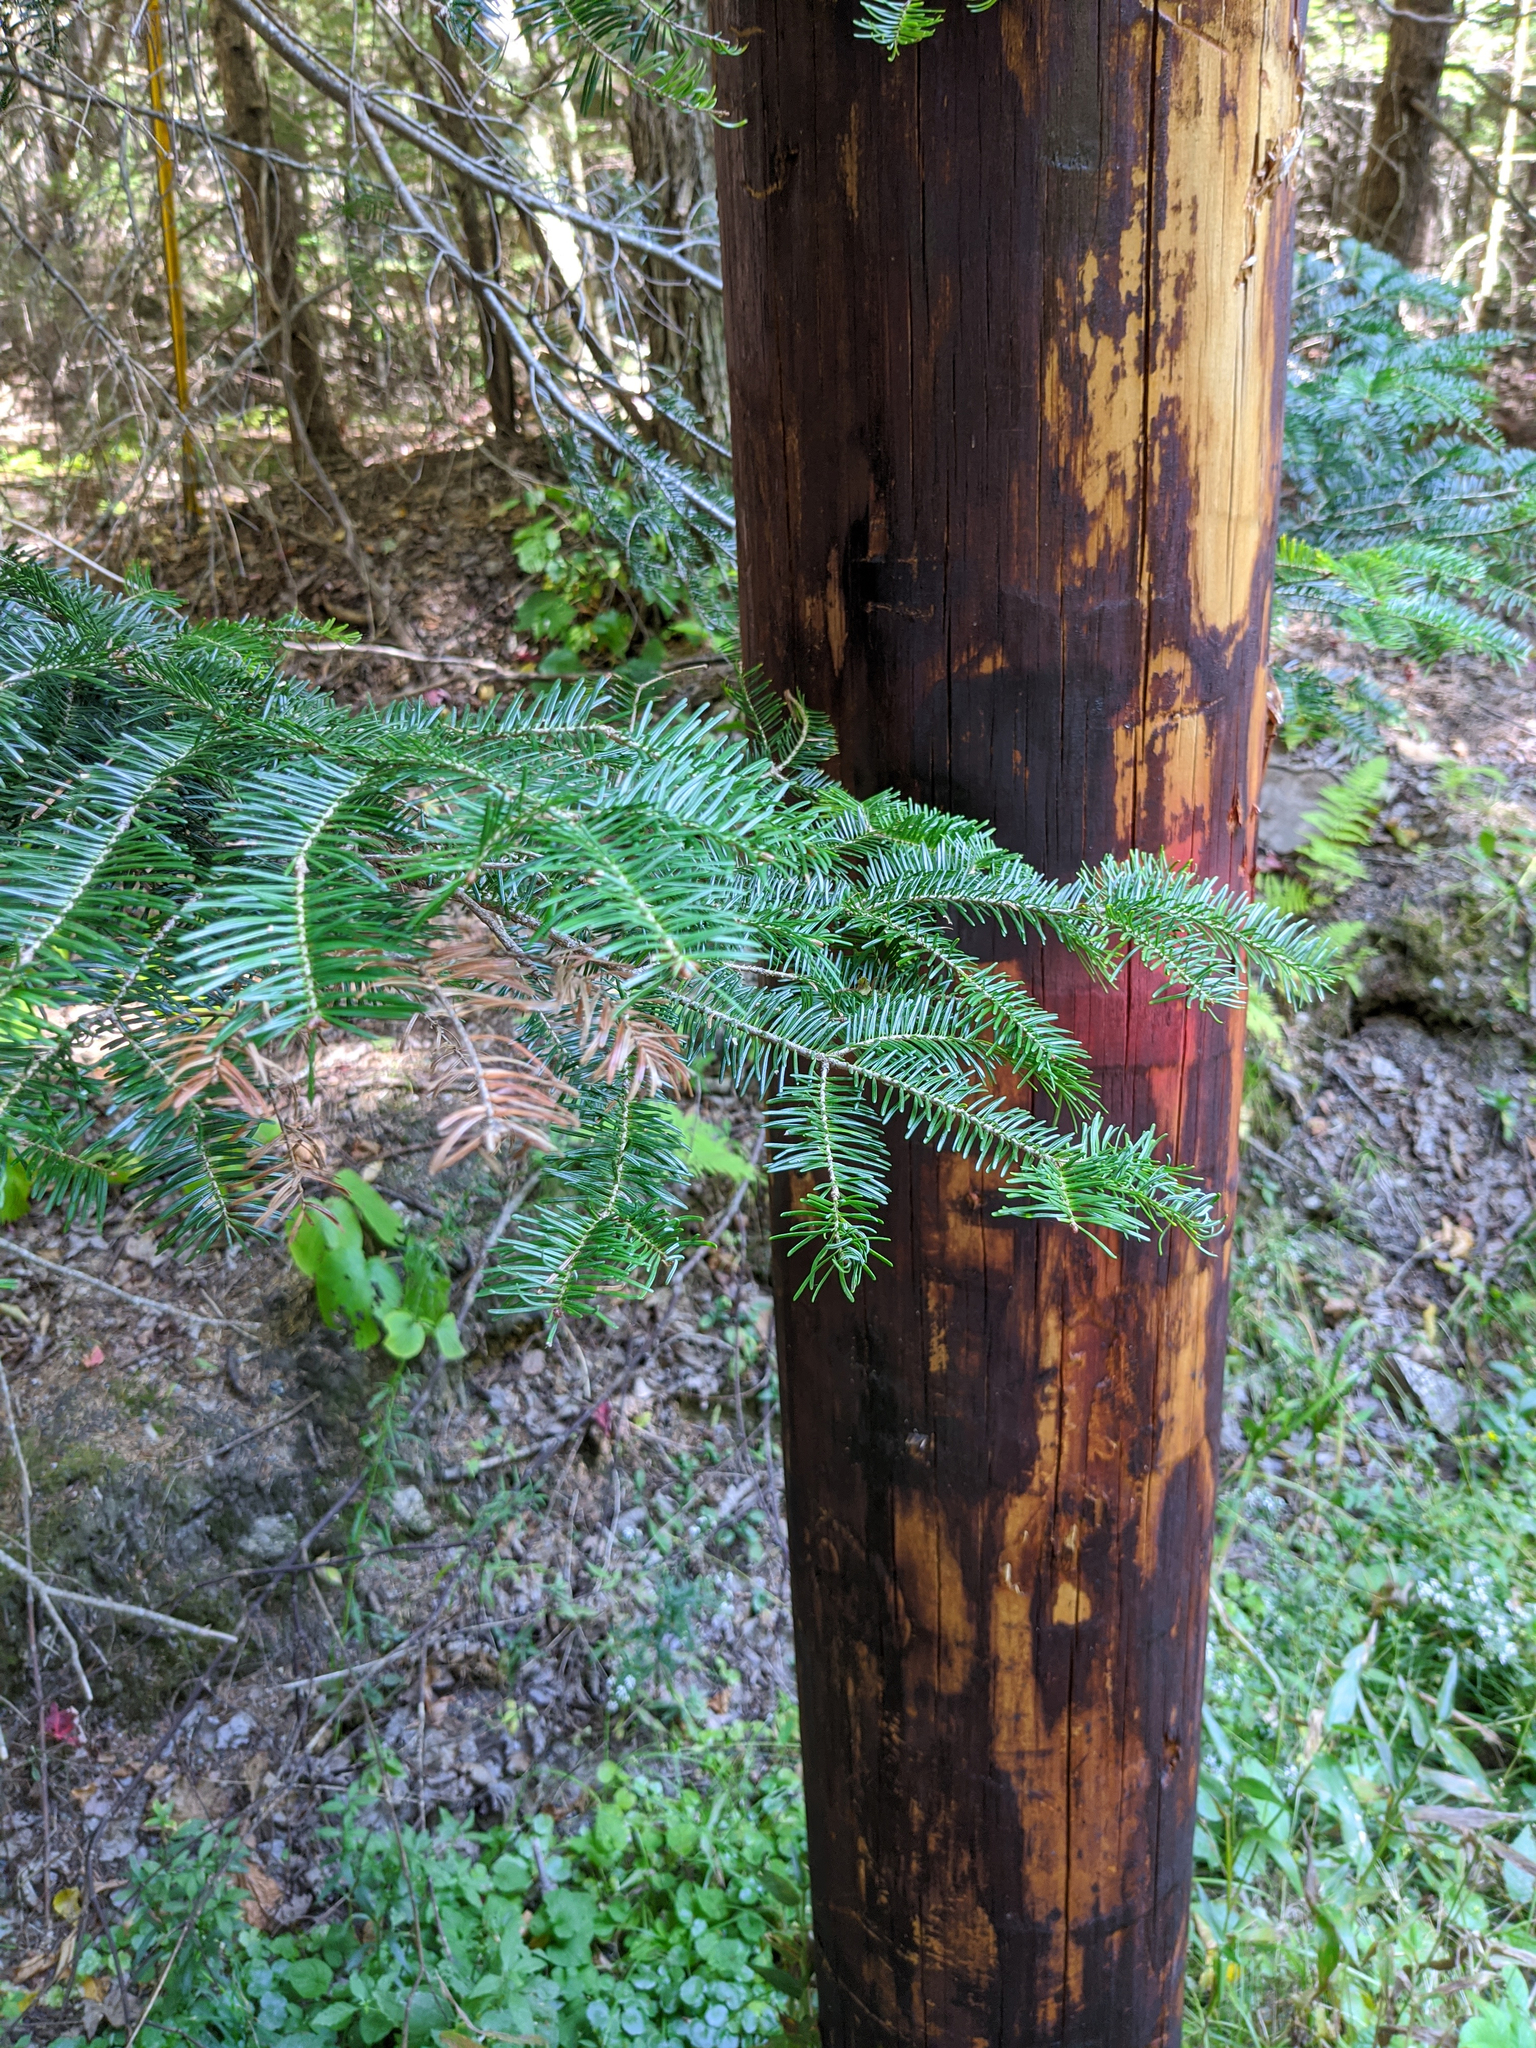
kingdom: Plantae
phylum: Tracheophyta
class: Pinopsida
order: Pinales
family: Pinaceae
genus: Abies
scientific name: Abies balsamea
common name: Balsam fir
